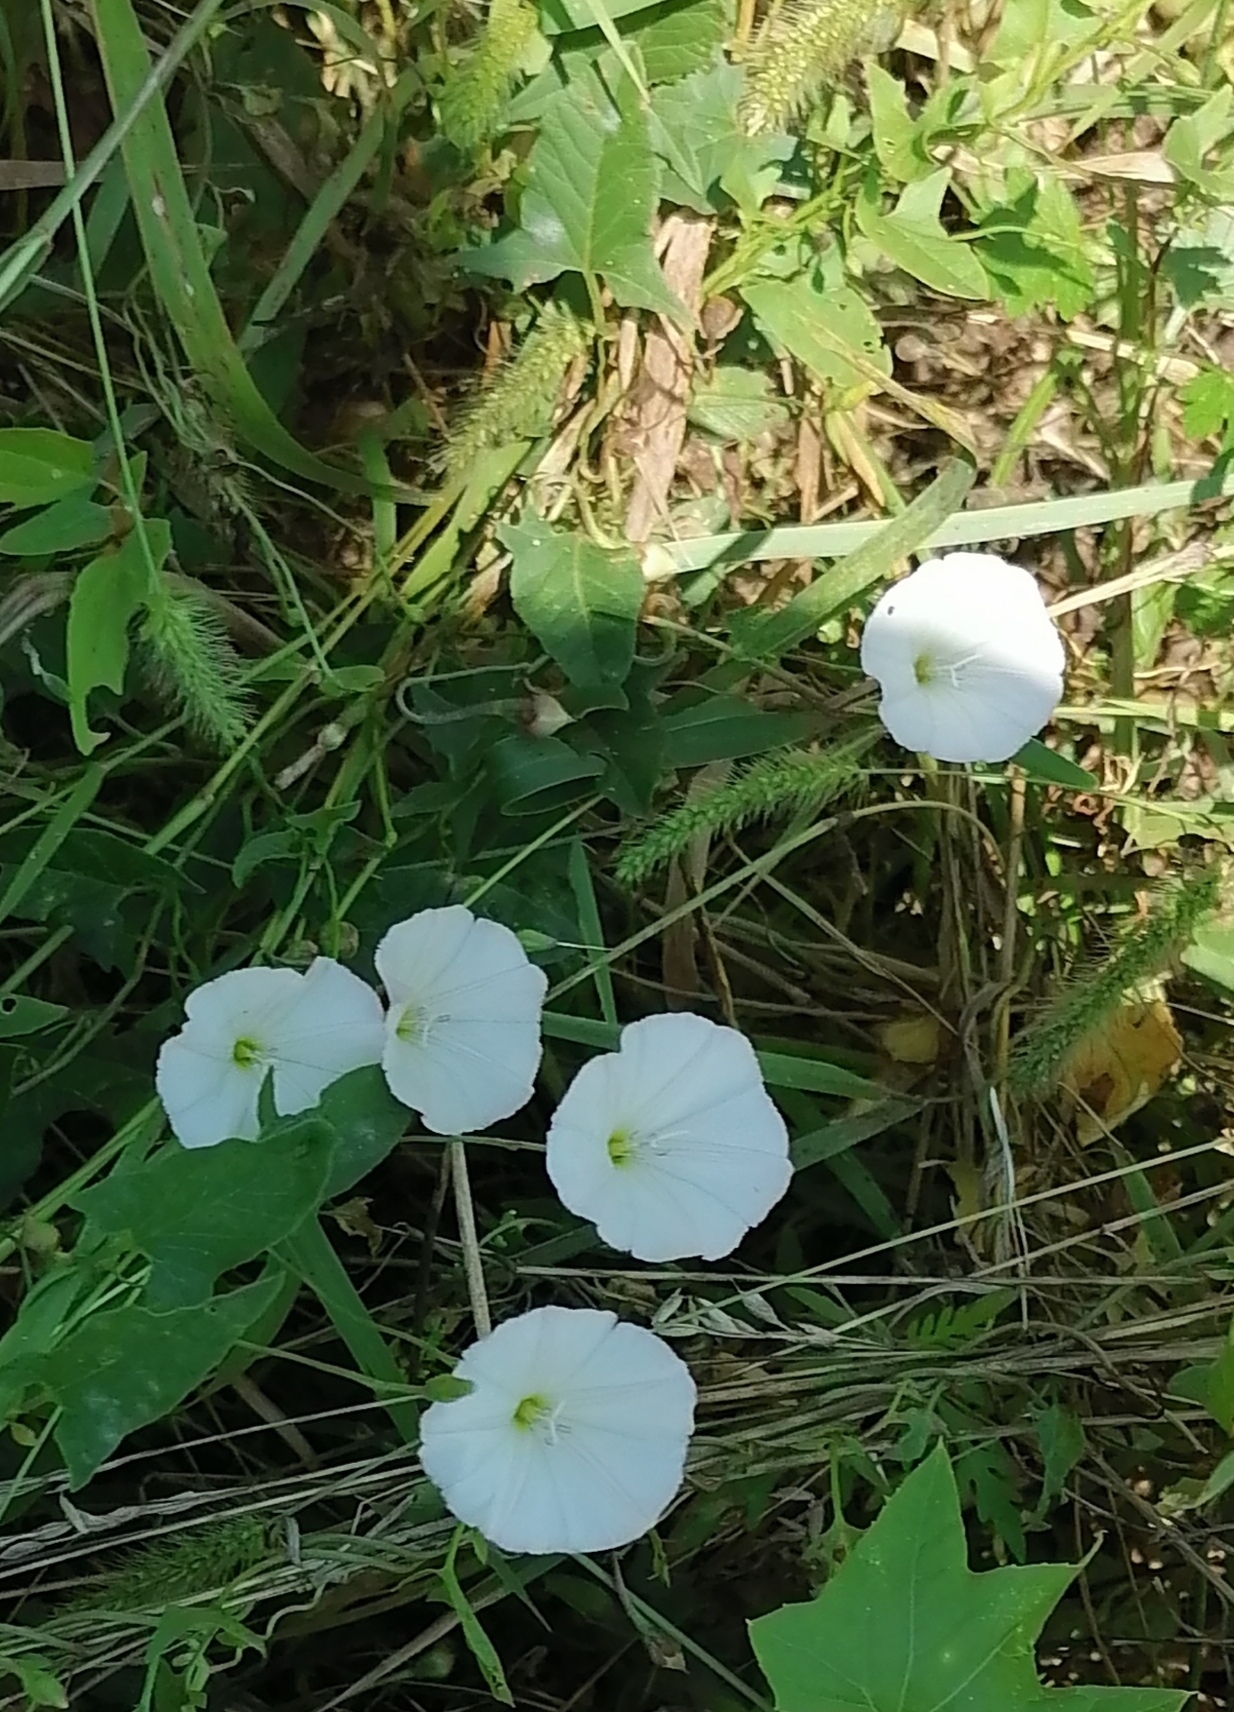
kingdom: Plantae
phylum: Tracheophyta
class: Magnoliopsida
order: Solanales
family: Convolvulaceae
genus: Calystegia
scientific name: Calystegia sepium
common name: Hedge bindweed
